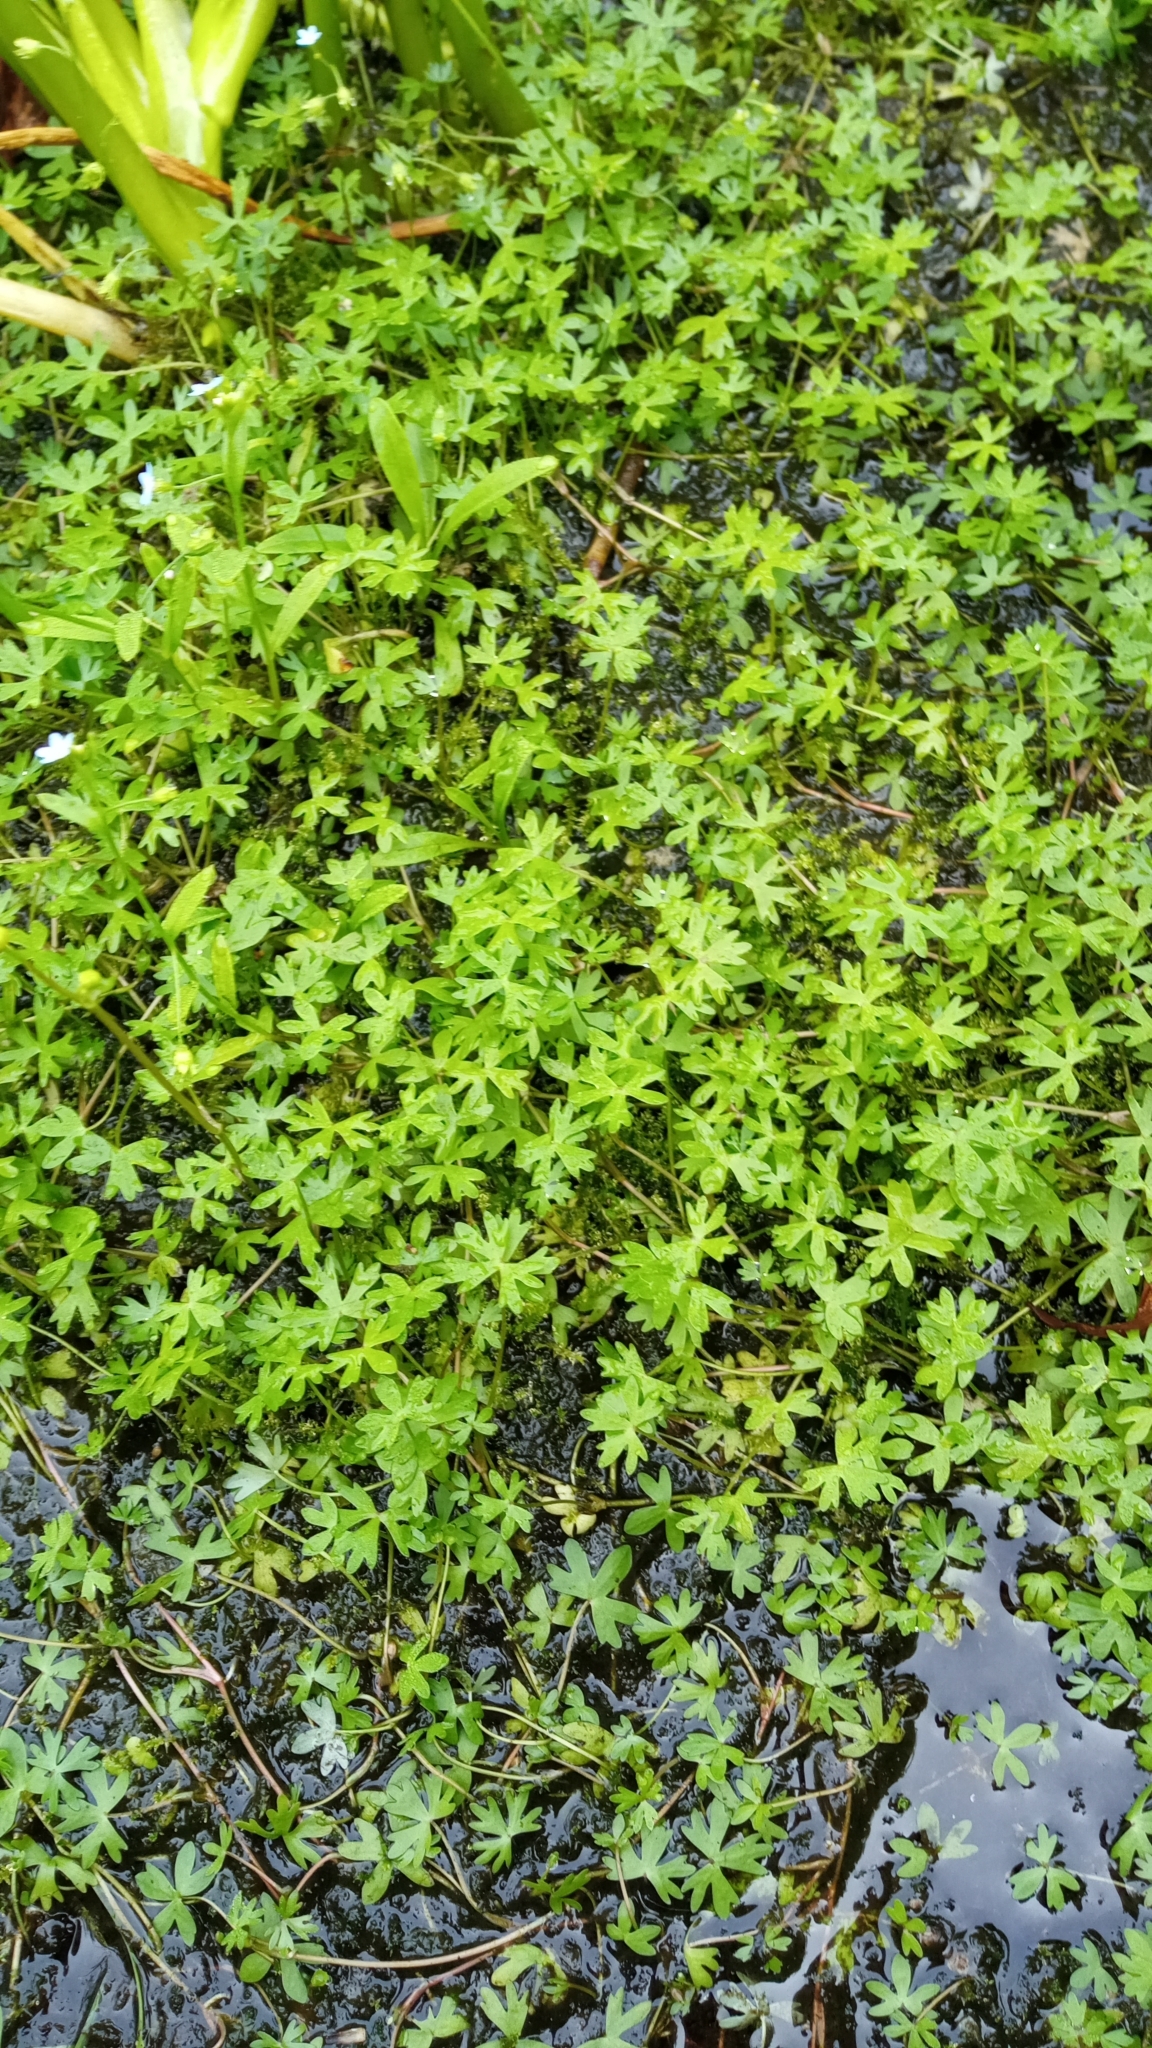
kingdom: Plantae
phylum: Tracheophyta
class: Magnoliopsida
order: Ranunculales
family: Ranunculaceae
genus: Ranunculus
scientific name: Ranunculus gmelinii
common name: Gmelin's buttercup
